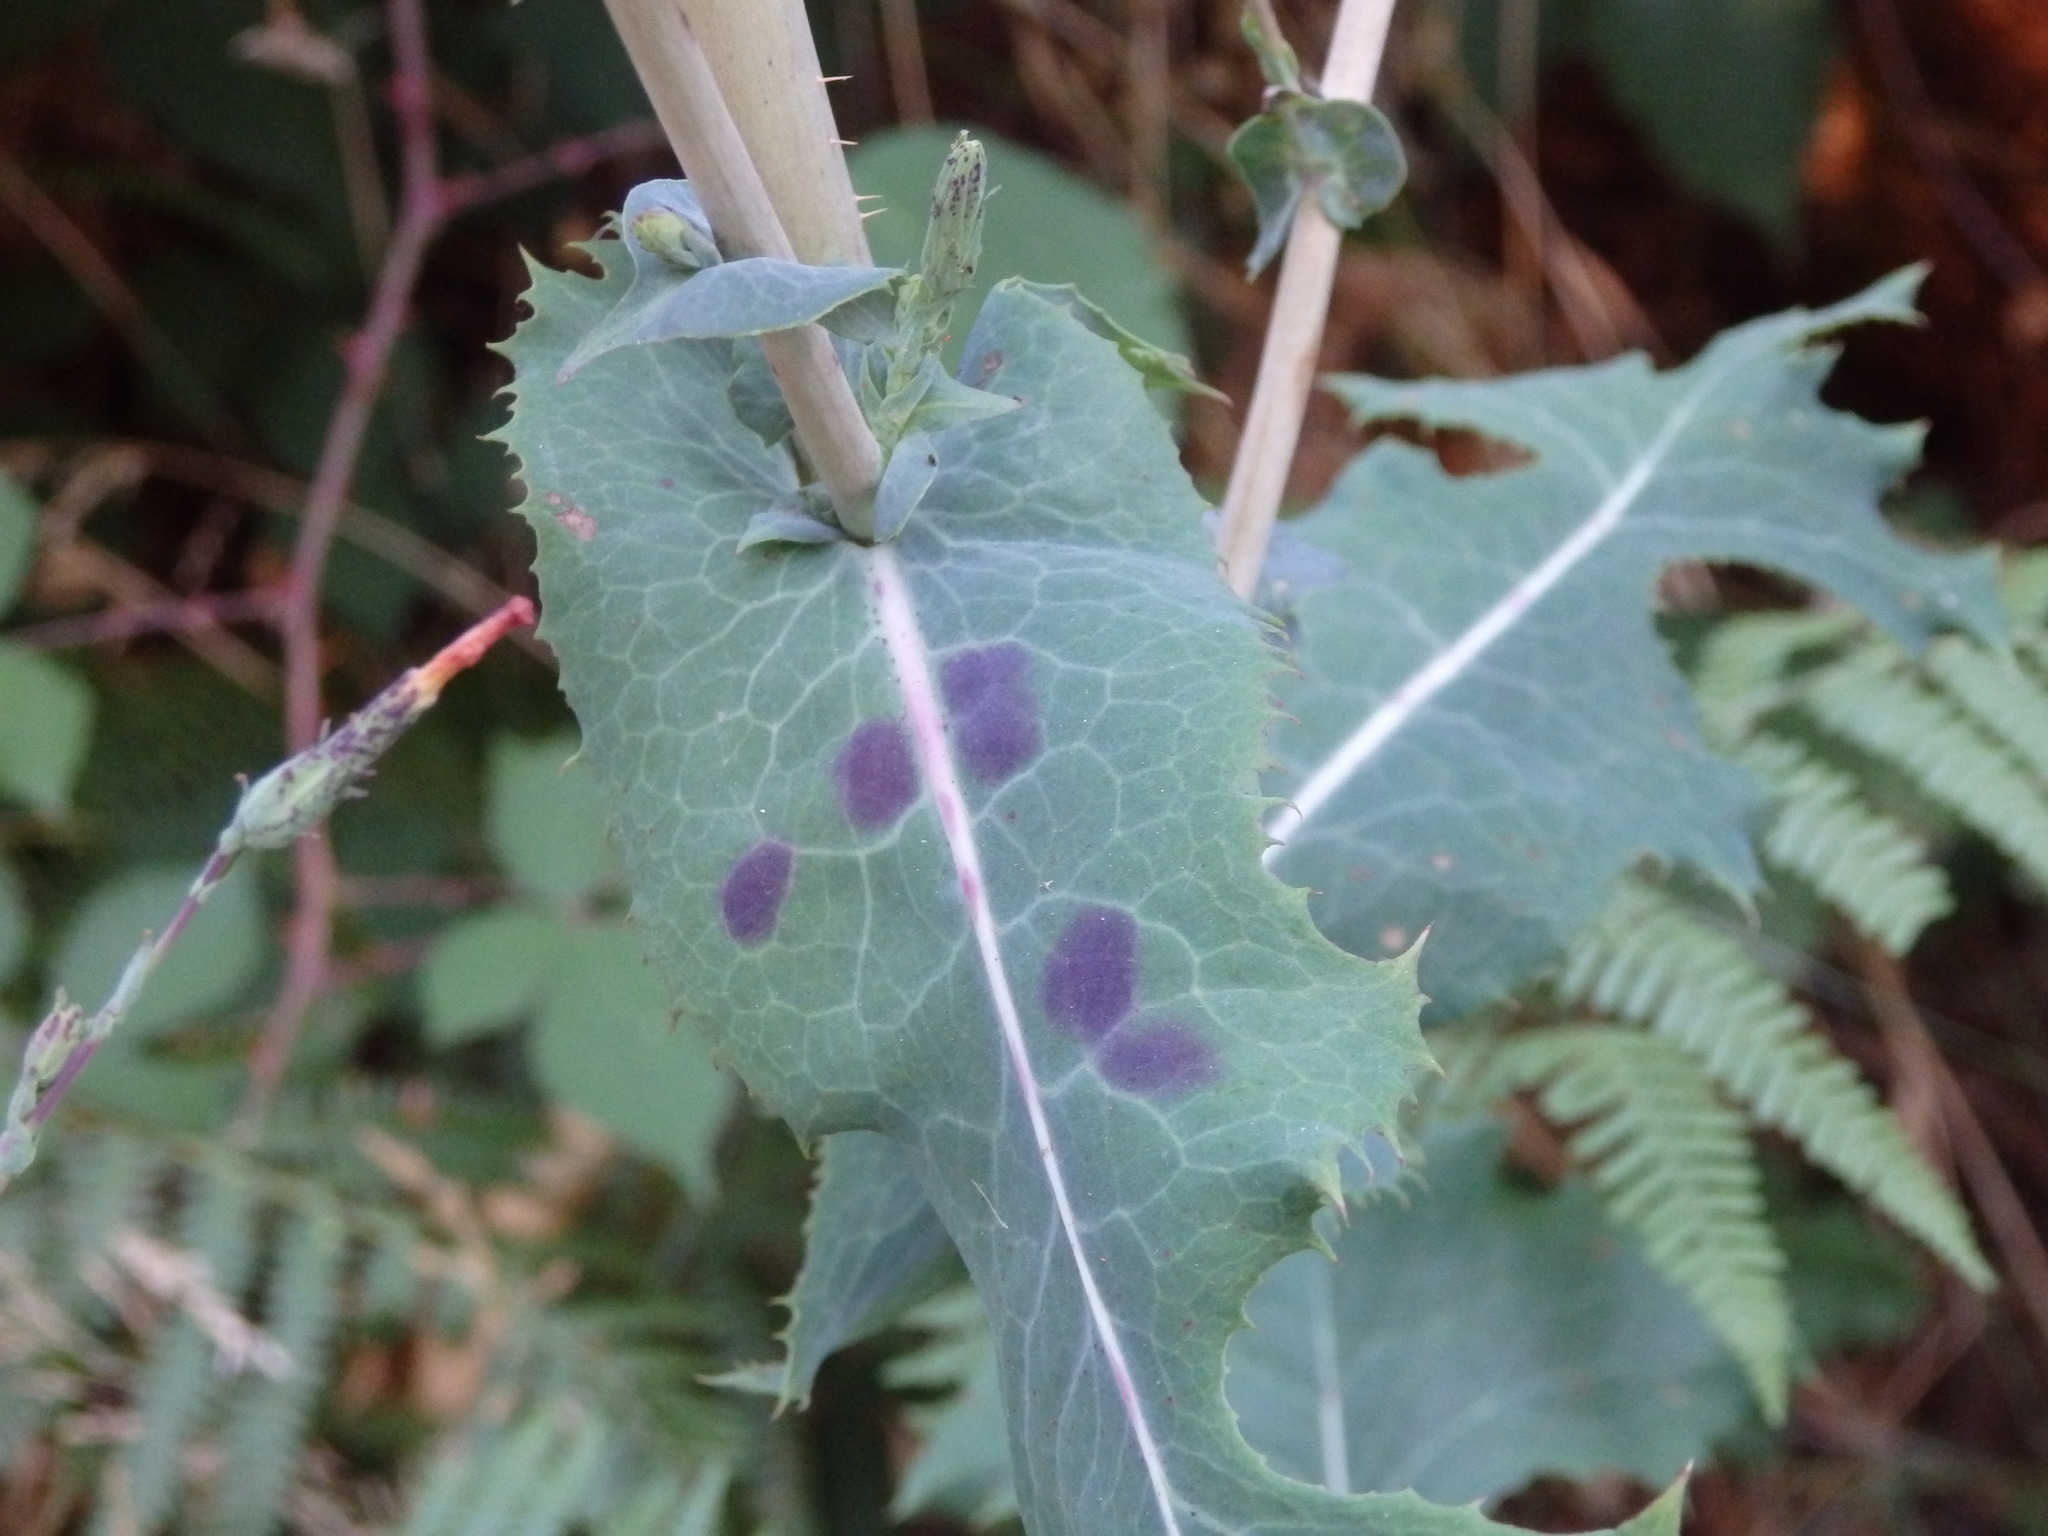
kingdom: Plantae
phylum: Tracheophyta
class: Magnoliopsida
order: Asterales
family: Asteraceae
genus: Lactuca
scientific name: Lactuca virosa
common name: Great lettuce
